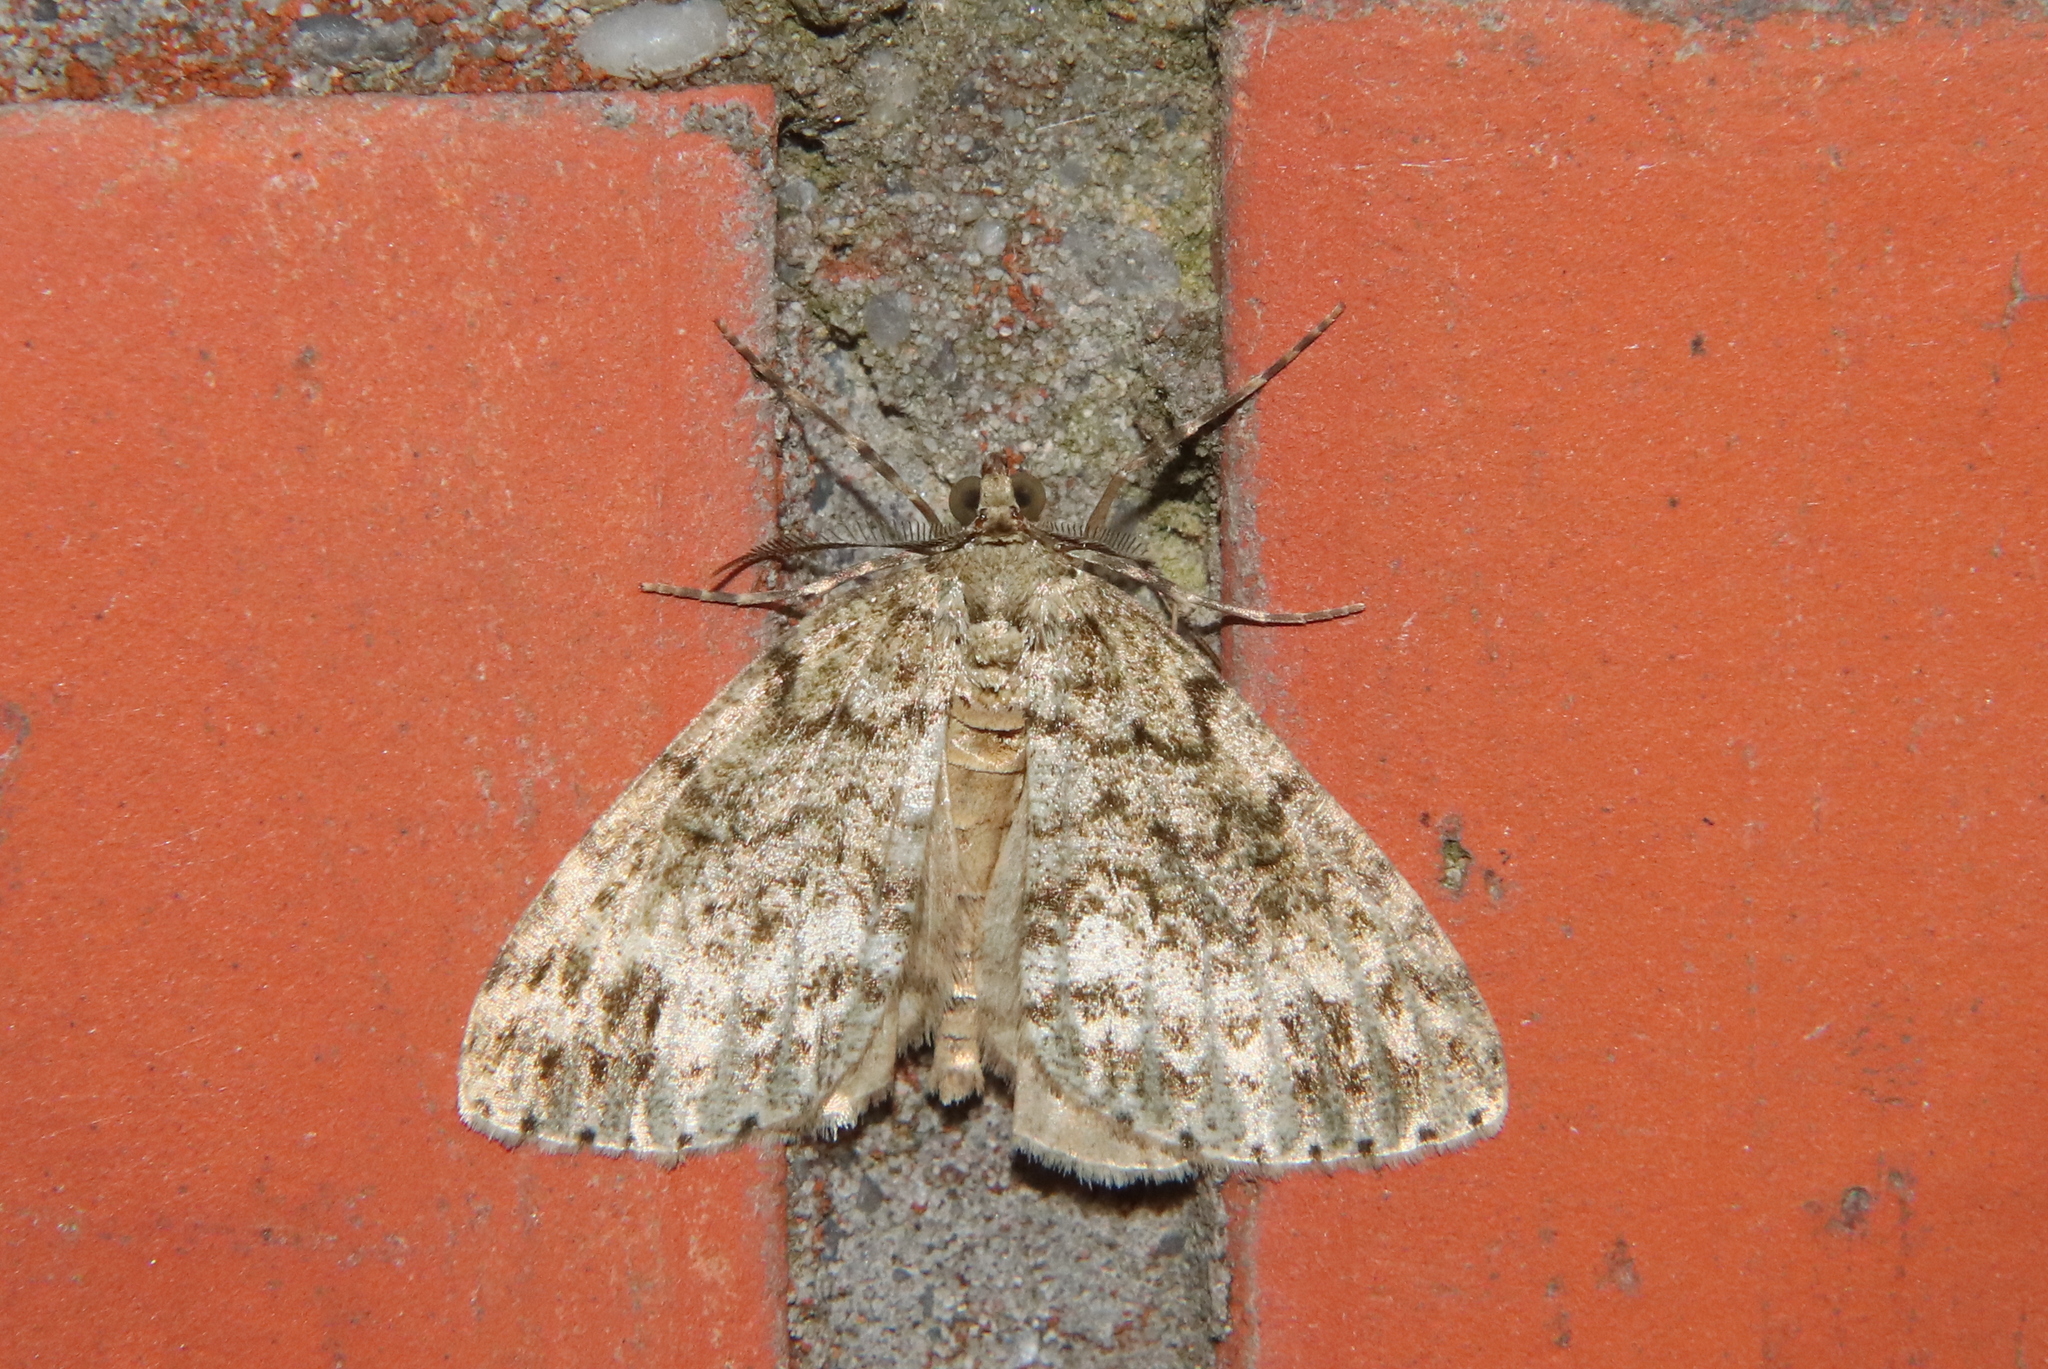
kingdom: Animalia
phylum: Arthropoda
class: Insecta
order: Lepidoptera
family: Geometridae
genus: Pseudocoremia
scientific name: Pseudocoremia indistincta
